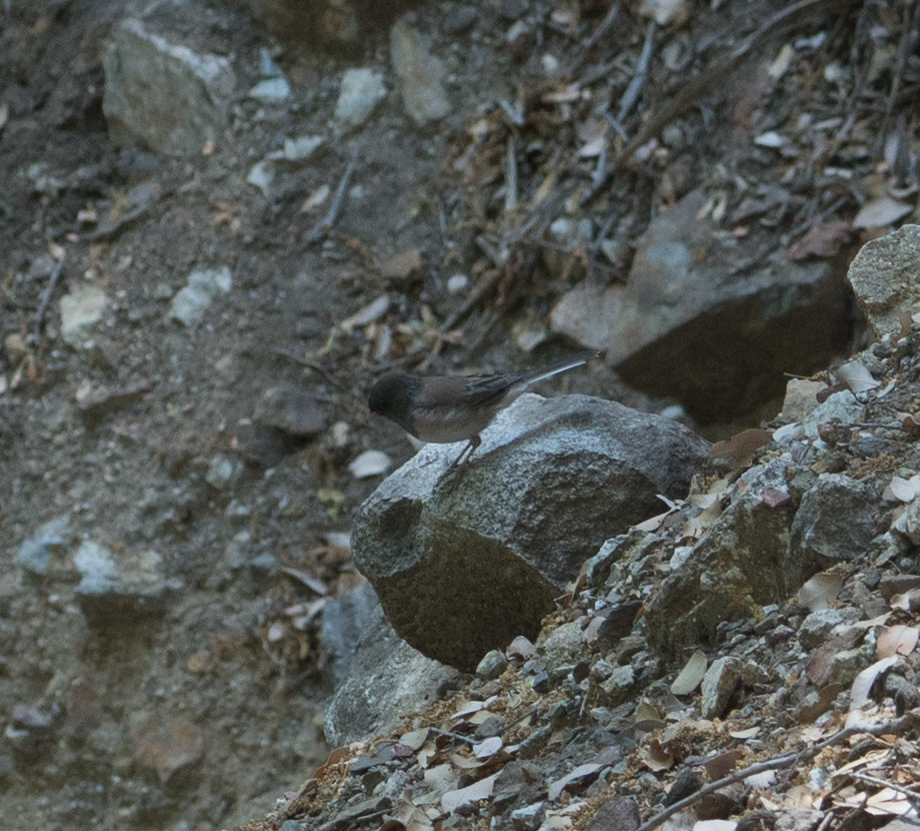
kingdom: Animalia
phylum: Chordata
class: Aves
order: Passeriformes
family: Passerellidae
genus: Junco
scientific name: Junco hyemalis
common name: Dark-eyed junco
